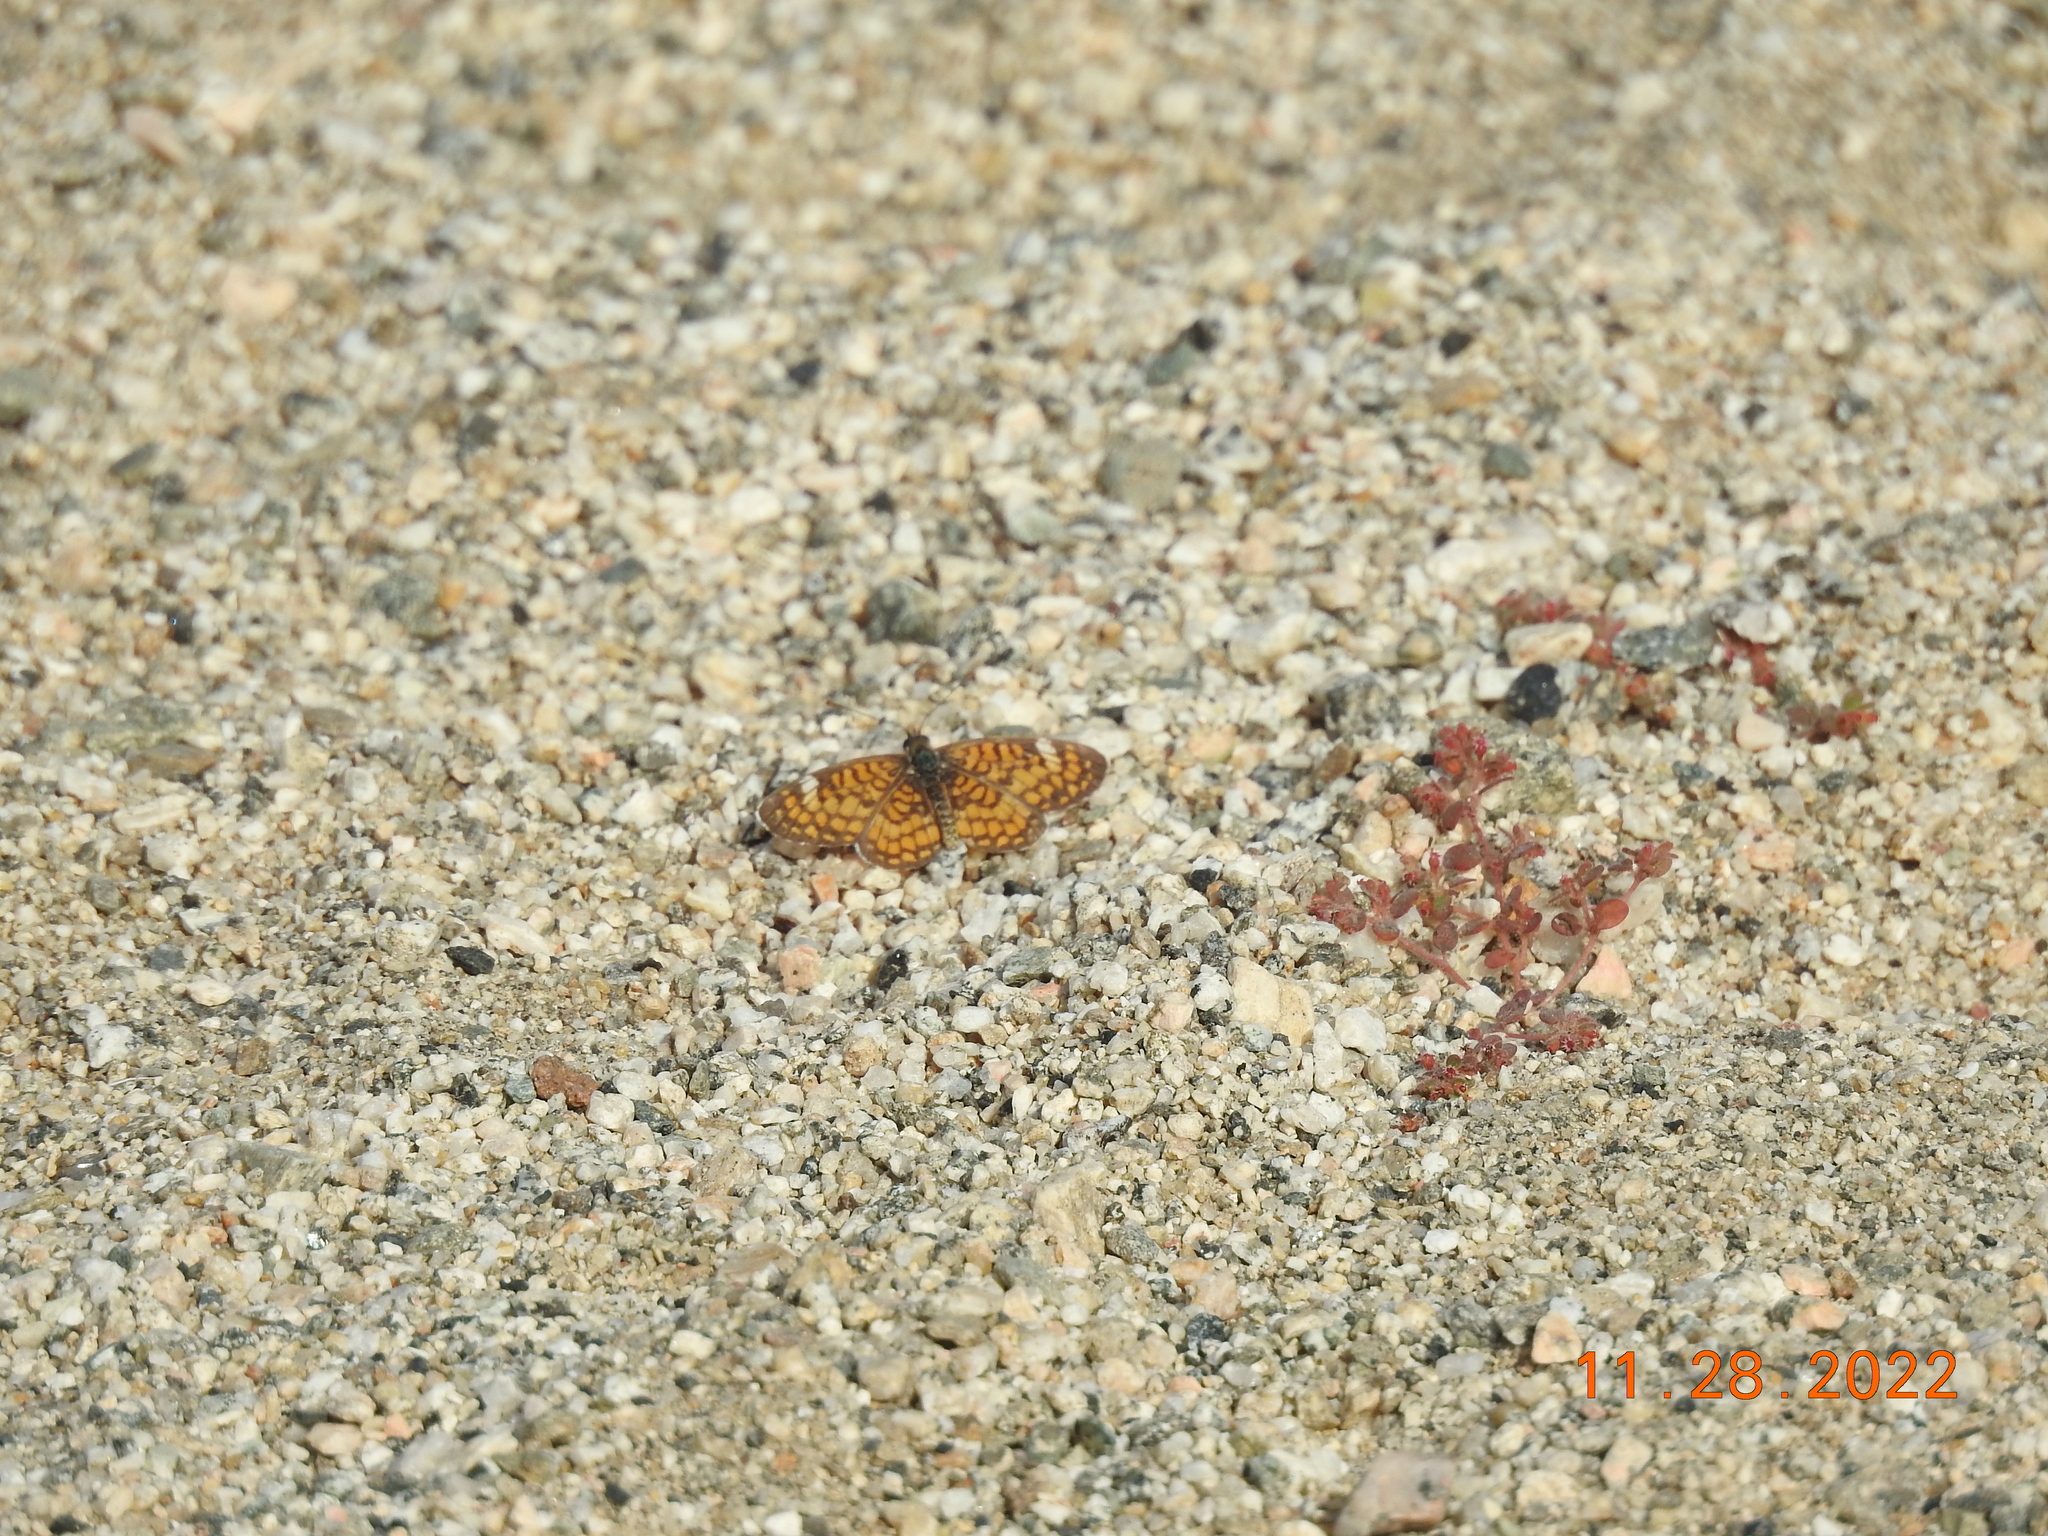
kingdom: Animalia
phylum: Arthropoda
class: Insecta
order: Lepidoptera
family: Nymphalidae
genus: Dymasia
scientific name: Dymasia dymas
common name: Tiny checkerspot
